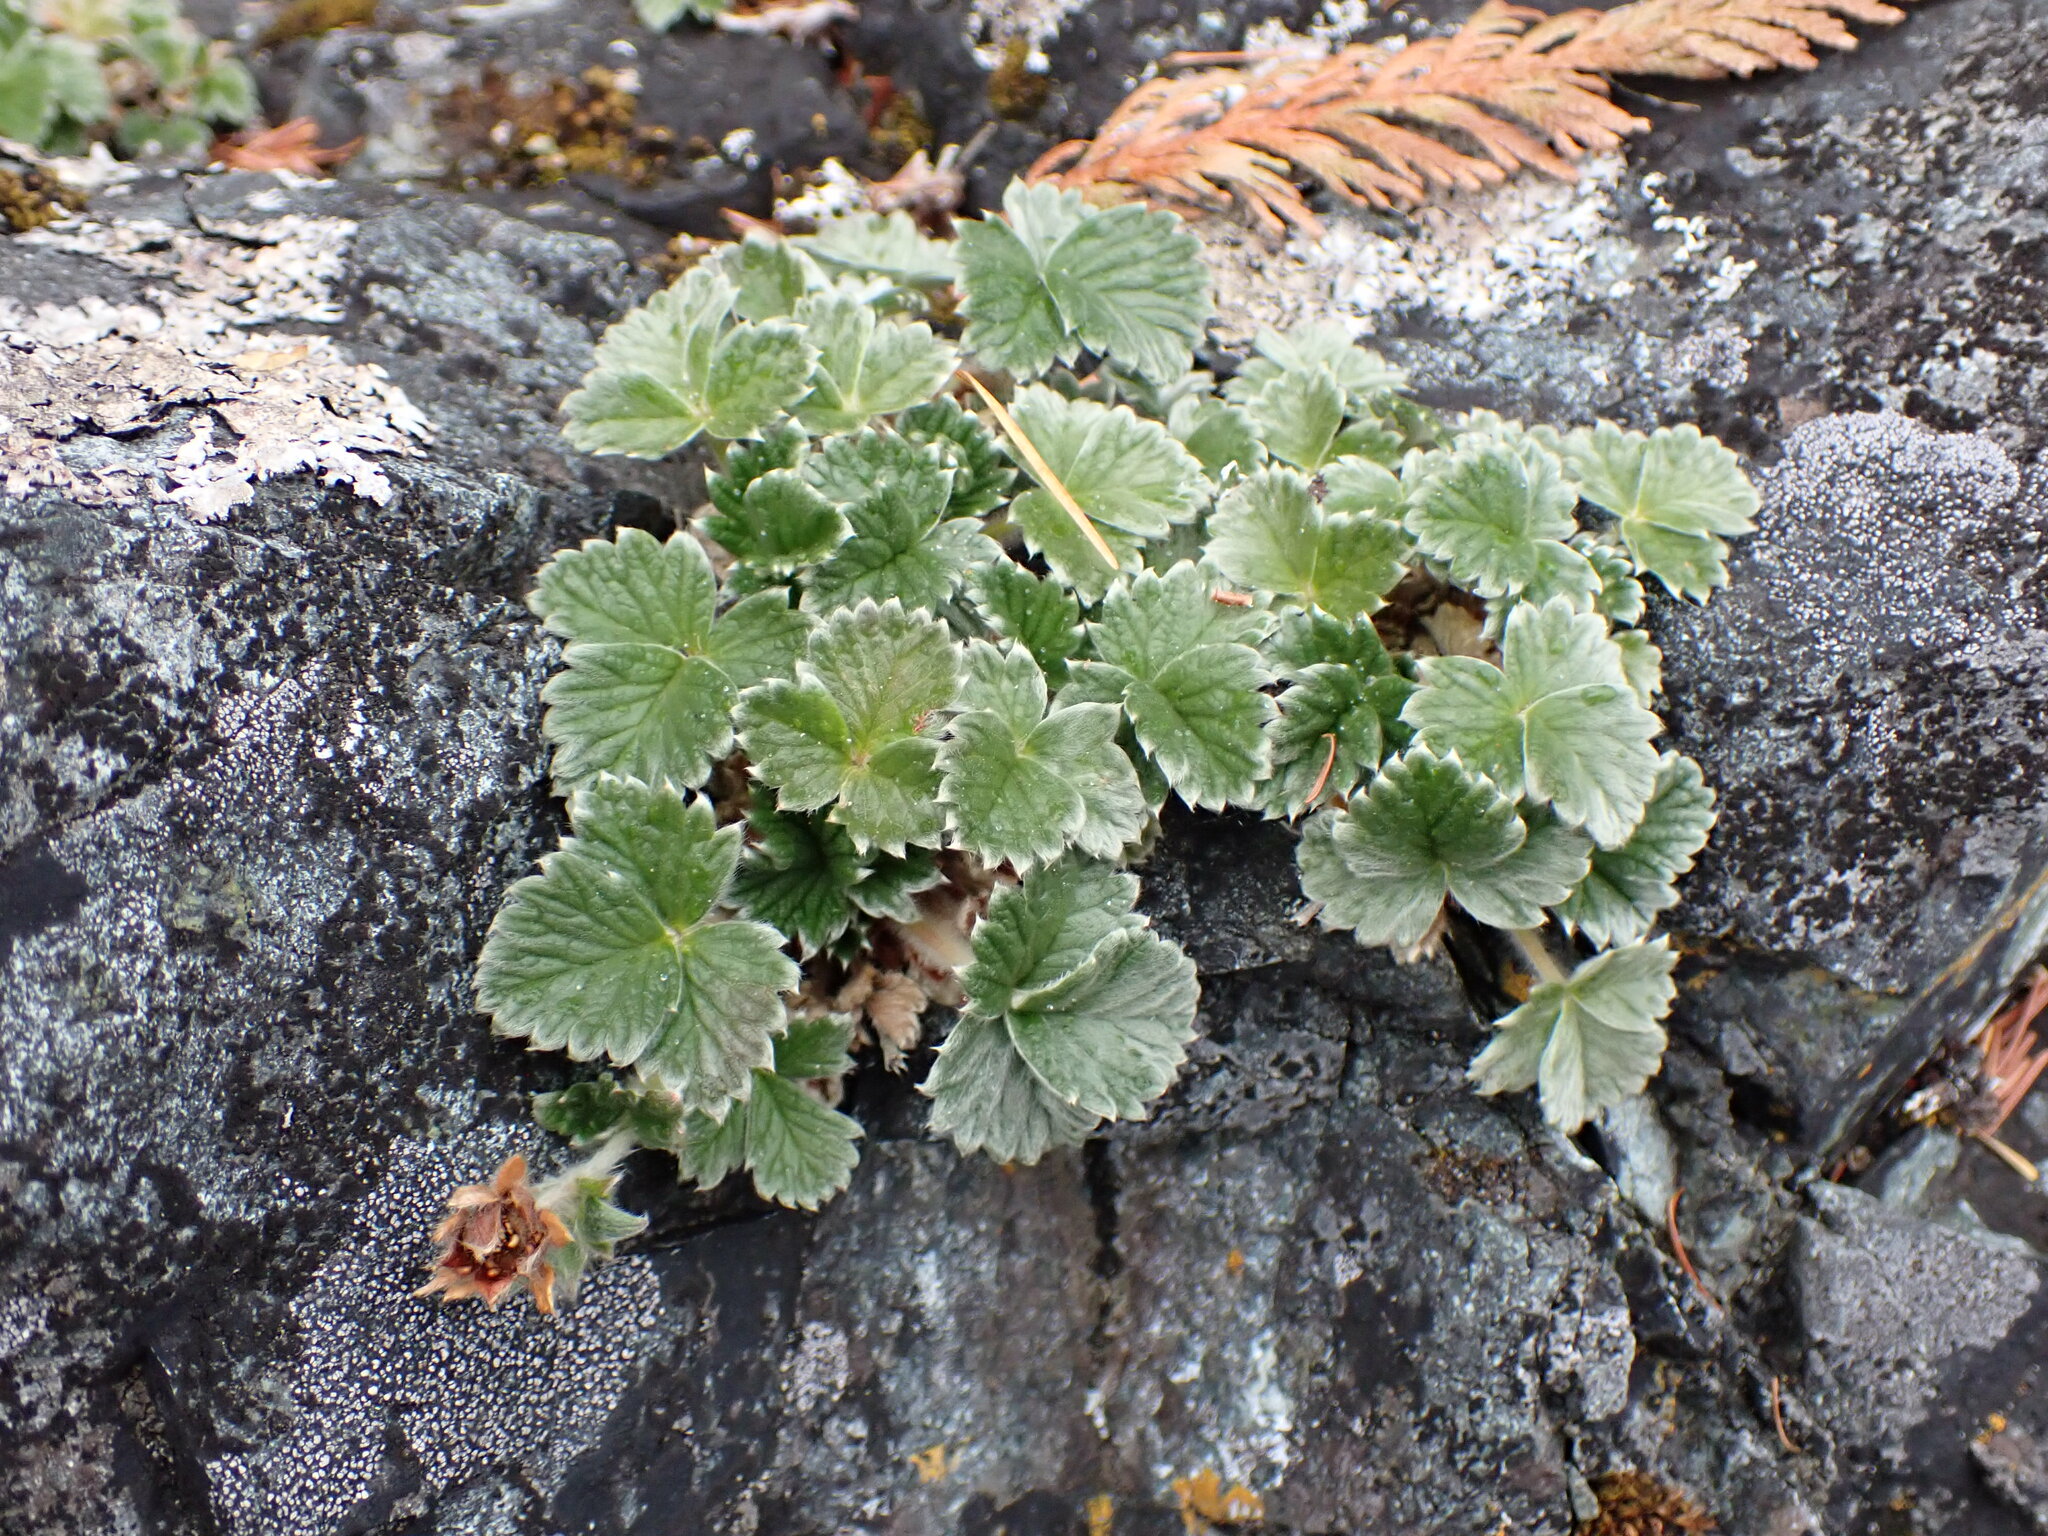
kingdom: Plantae
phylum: Tracheophyta
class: Magnoliopsida
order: Rosales
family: Rosaceae
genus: Potentilla
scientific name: Potentilla villosa
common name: Northern cinquefoil
